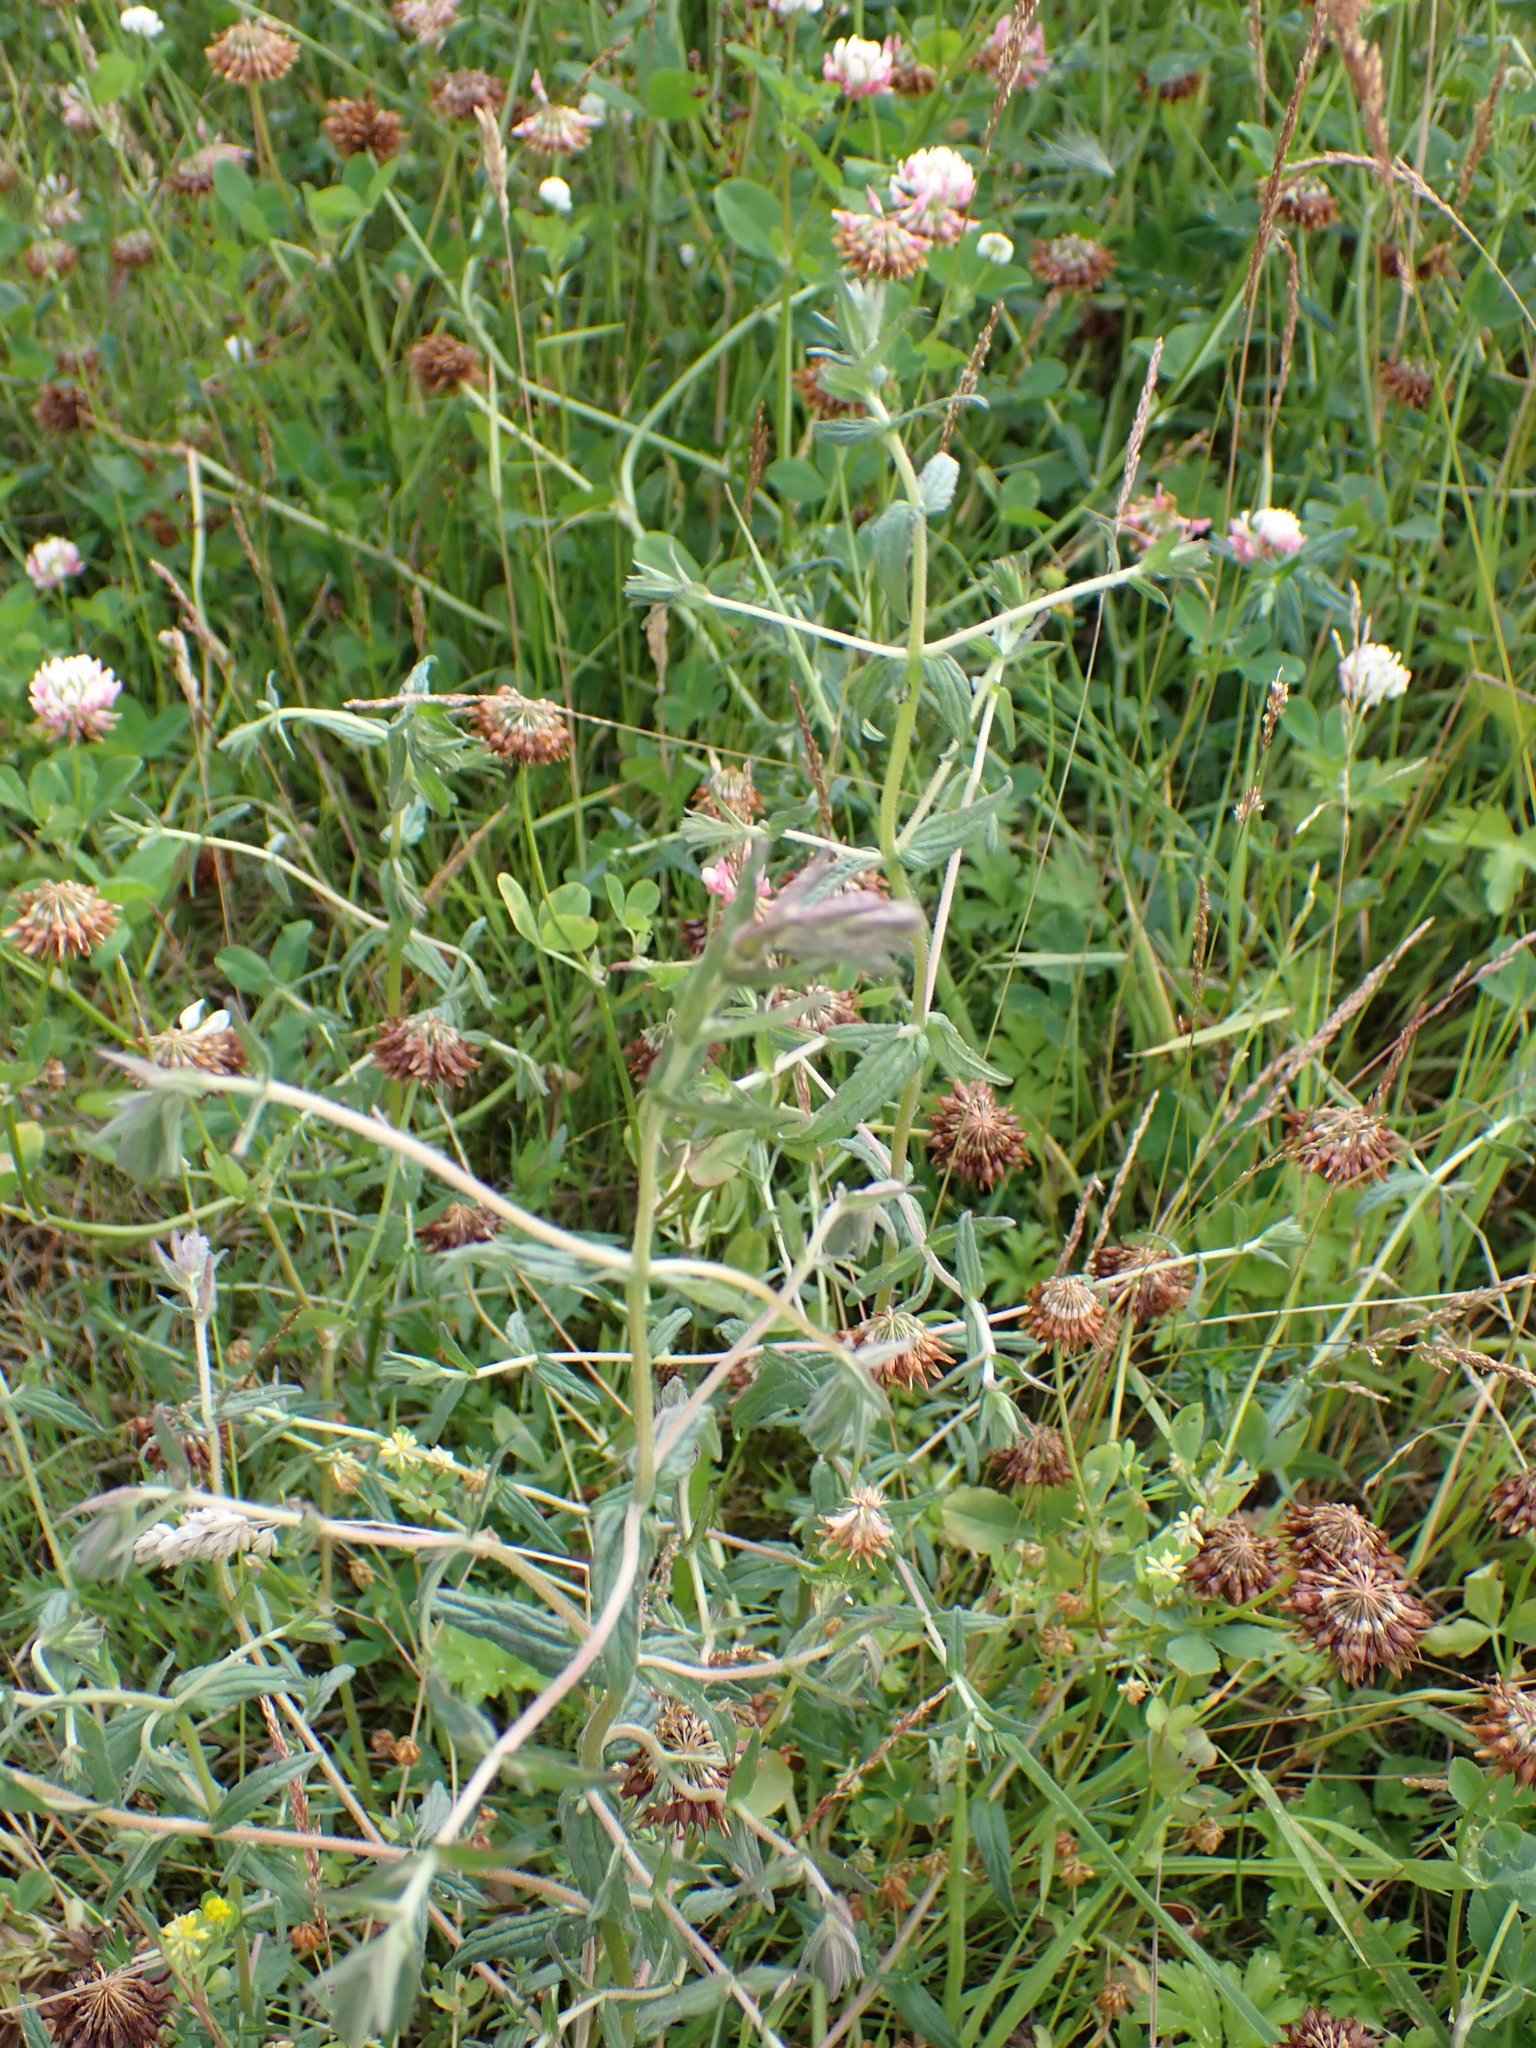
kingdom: Plantae
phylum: Tracheophyta
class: Magnoliopsida
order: Lamiales
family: Orobanchaceae
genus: Odontites
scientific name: Odontites vulgaris
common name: Broomrape
